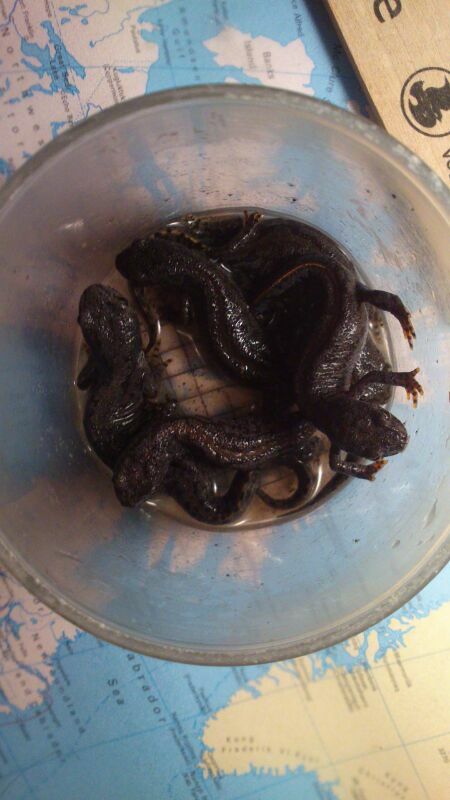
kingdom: Animalia
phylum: Chordata
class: Amphibia
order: Caudata
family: Salamandridae
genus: Ichthyosaura
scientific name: Ichthyosaura alpestris
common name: Alpine newt
